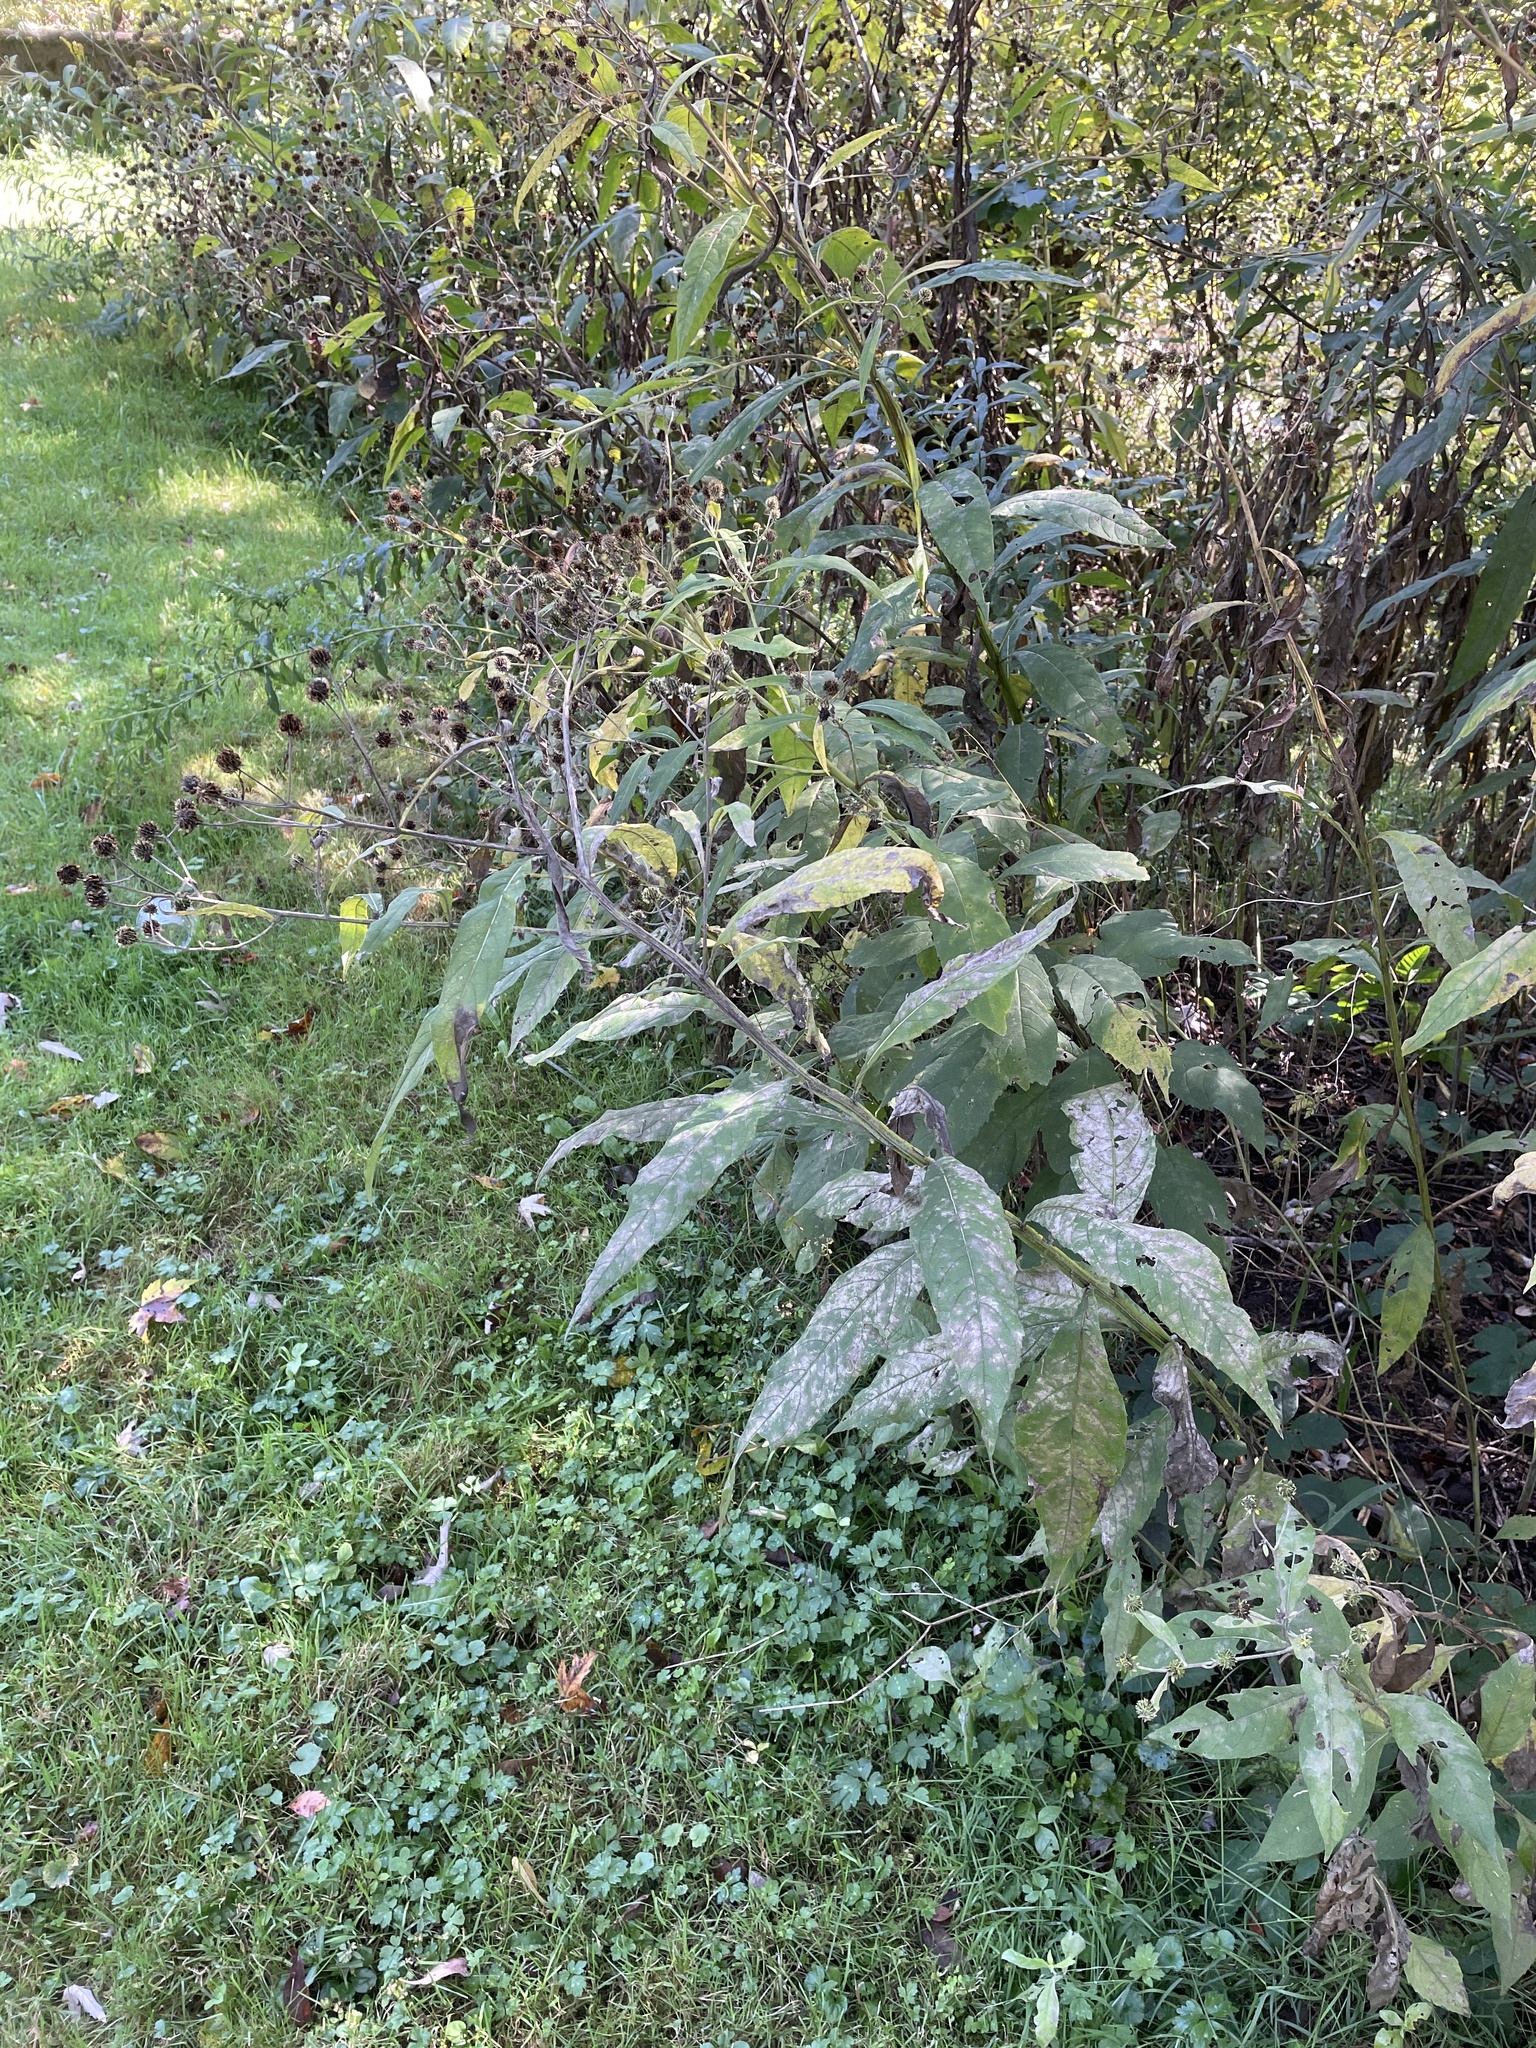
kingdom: Plantae
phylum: Tracheophyta
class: Magnoliopsida
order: Asterales
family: Asteraceae
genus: Verbesina
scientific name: Verbesina alternifolia
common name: Wingstem
